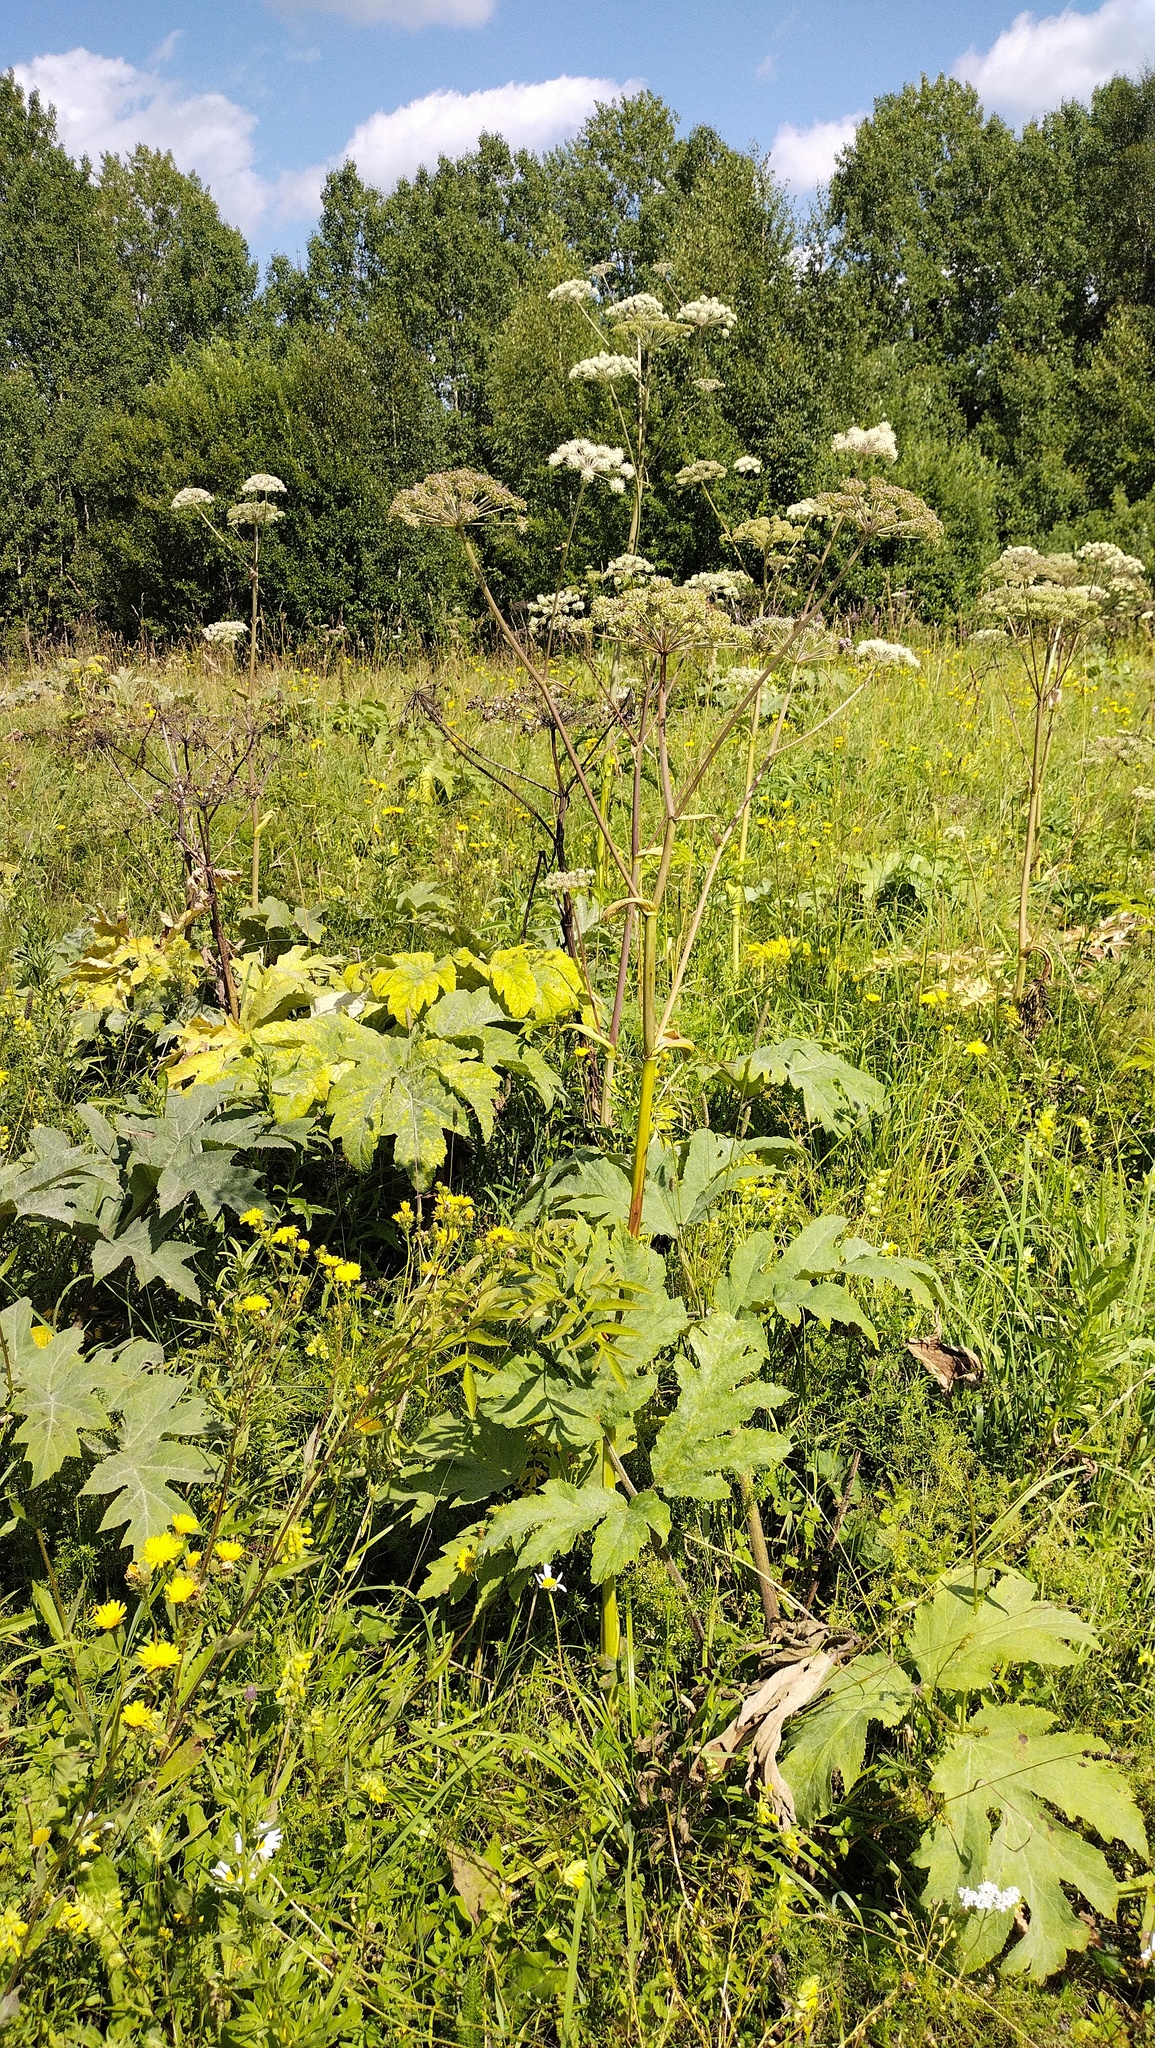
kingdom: Plantae
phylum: Tracheophyta
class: Magnoliopsida
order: Apiales
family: Apiaceae
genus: Heracleum
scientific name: Heracleum dissectum
